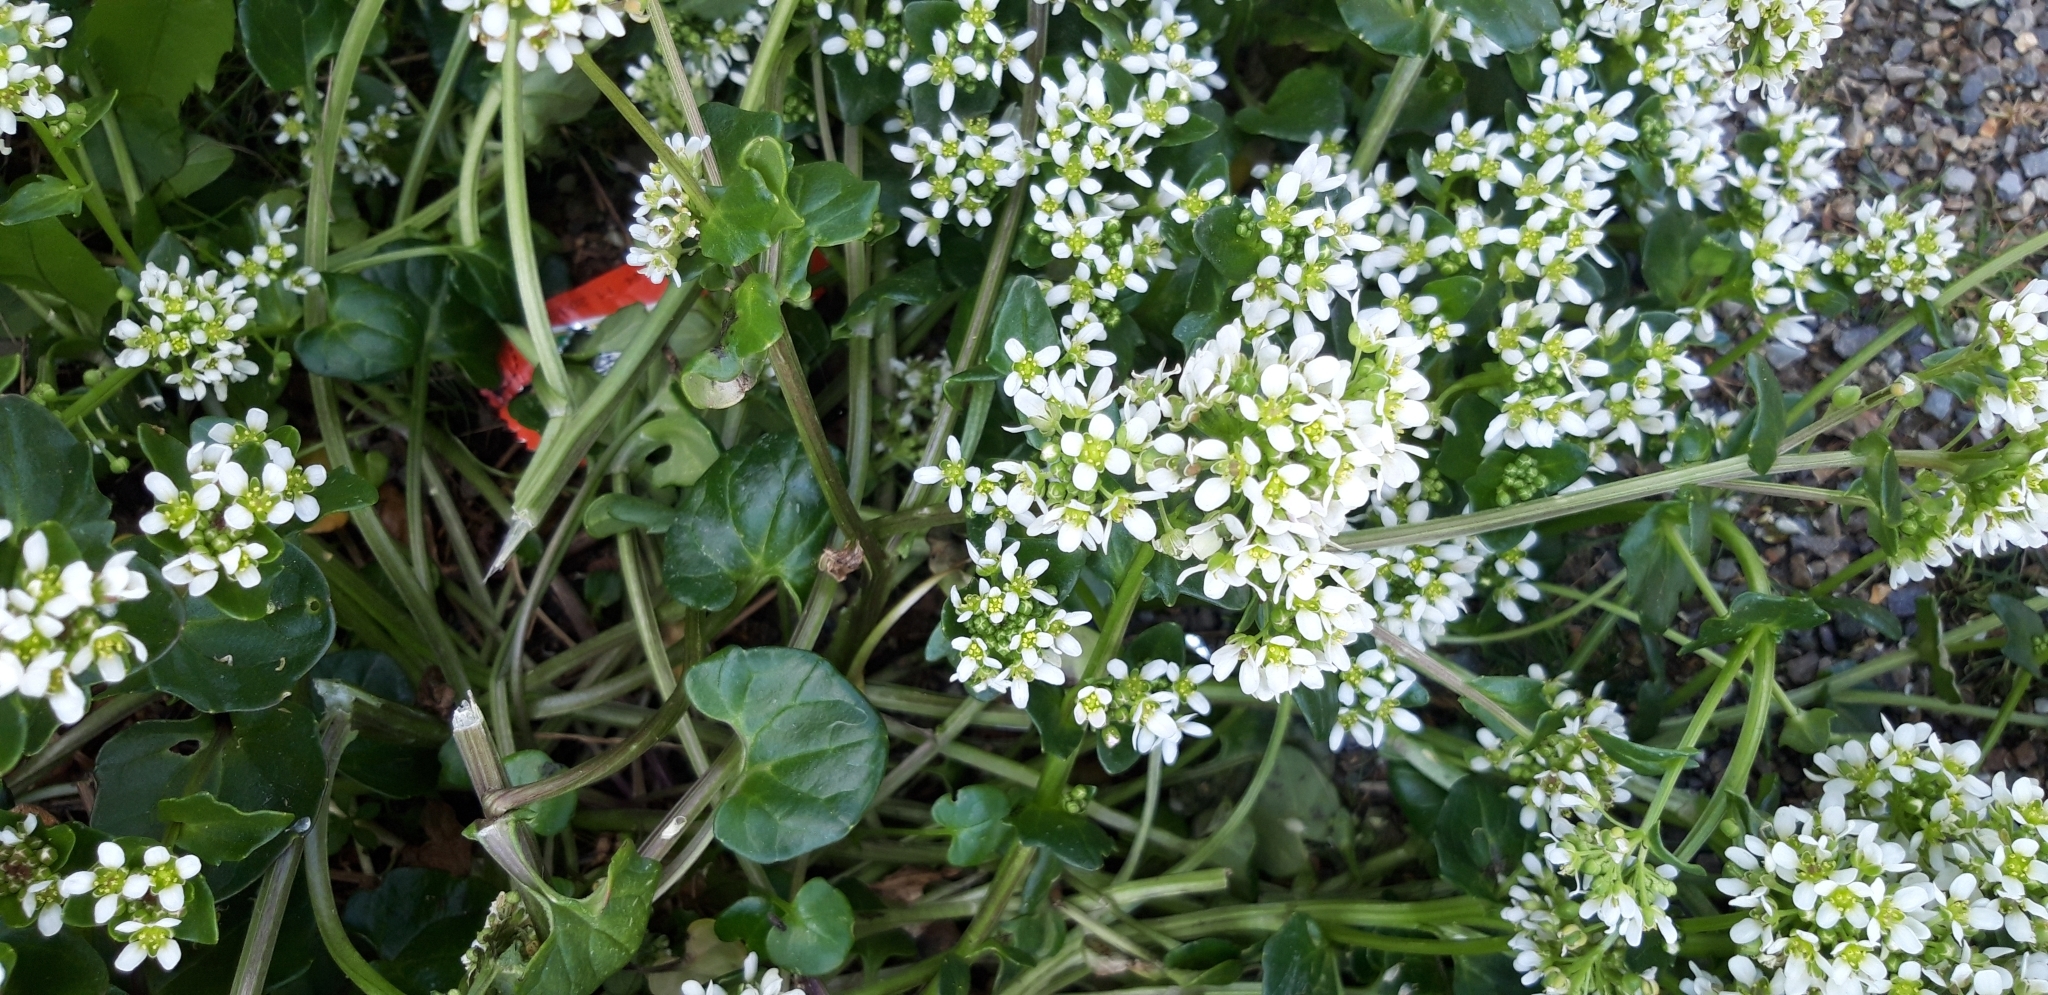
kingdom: Plantae
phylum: Tracheophyta
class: Magnoliopsida
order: Brassicales
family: Brassicaceae
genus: Cochlearia
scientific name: Cochlearia officinalis
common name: Scurvy-grass
